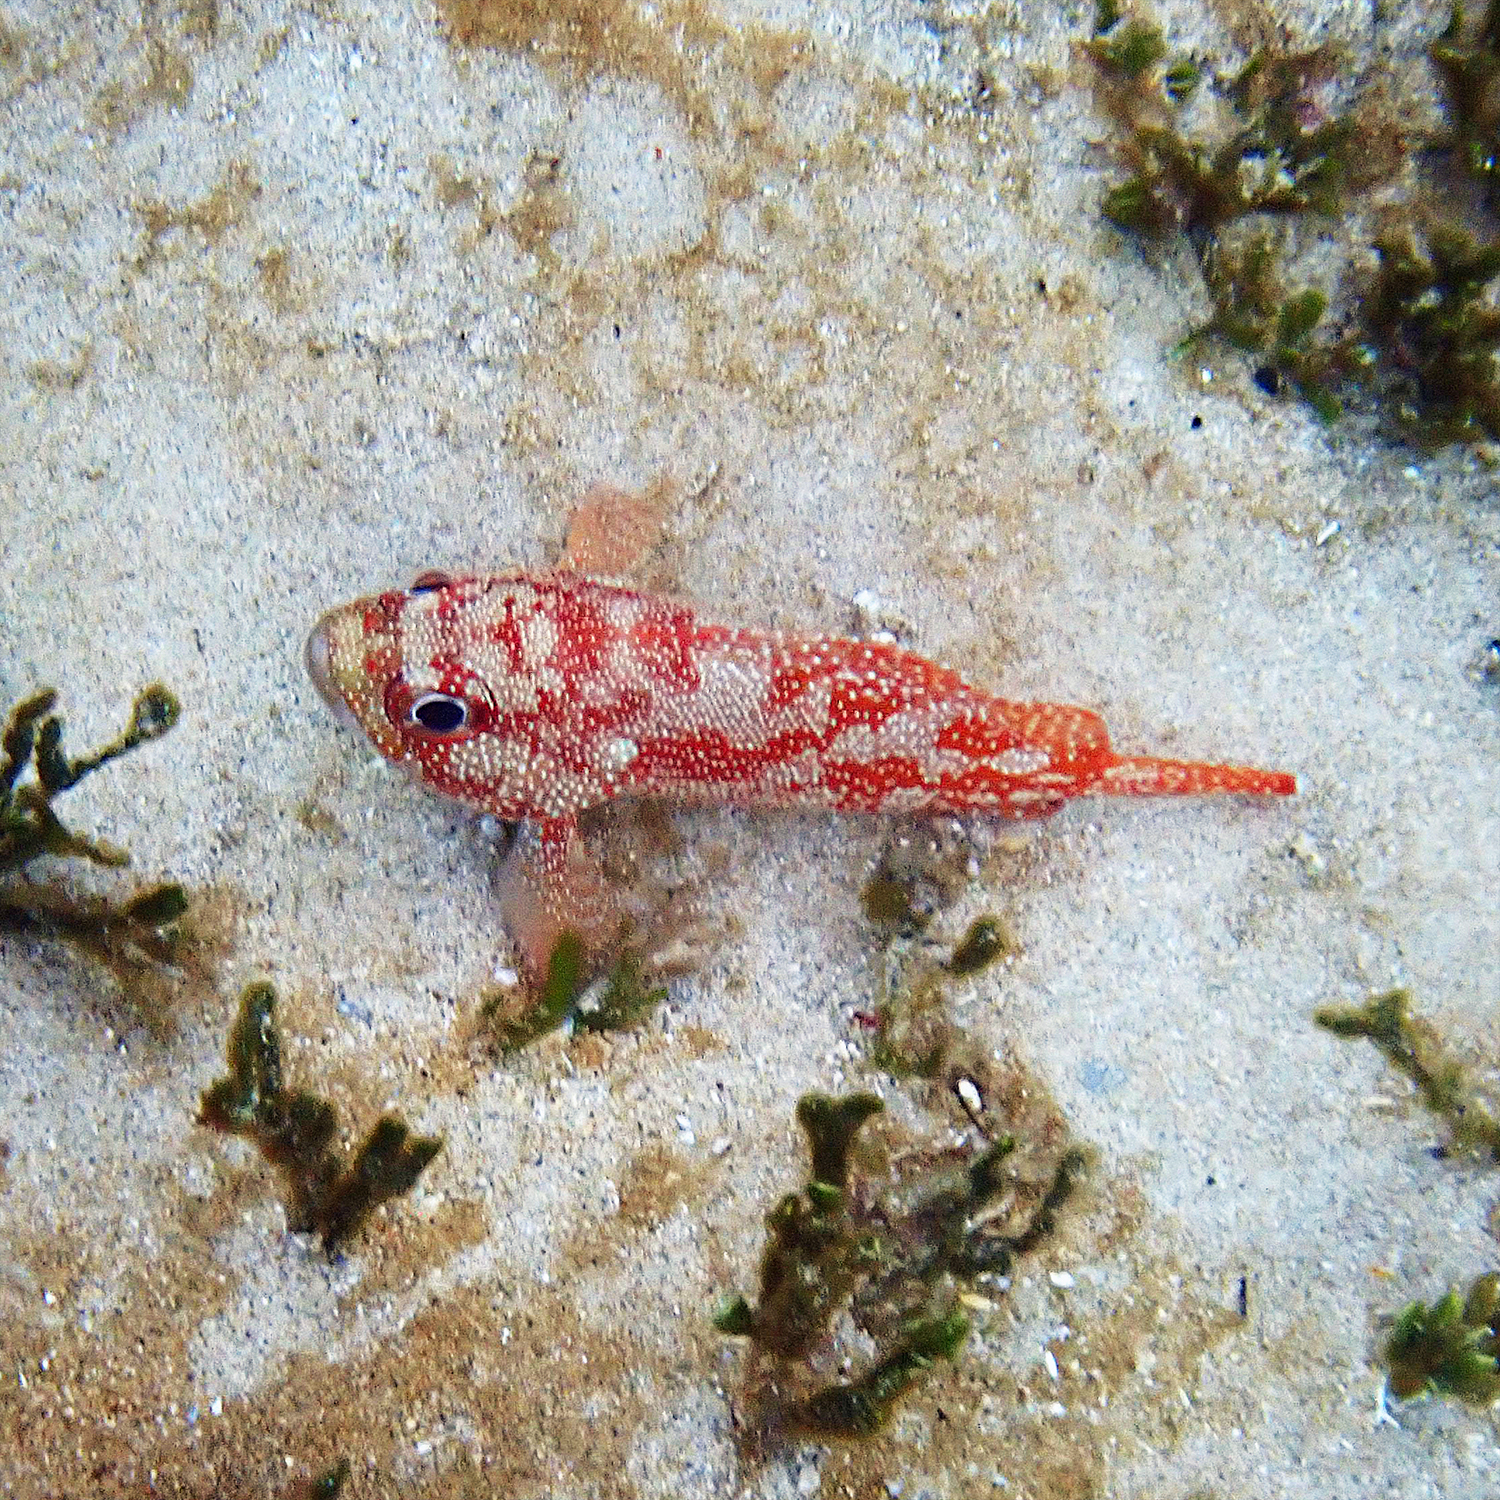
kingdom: Animalia
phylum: Chordata
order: Perciformes
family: Serranidae
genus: Trachypoma
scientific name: Trachypoma macracanthus
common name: Toadstool grouper
